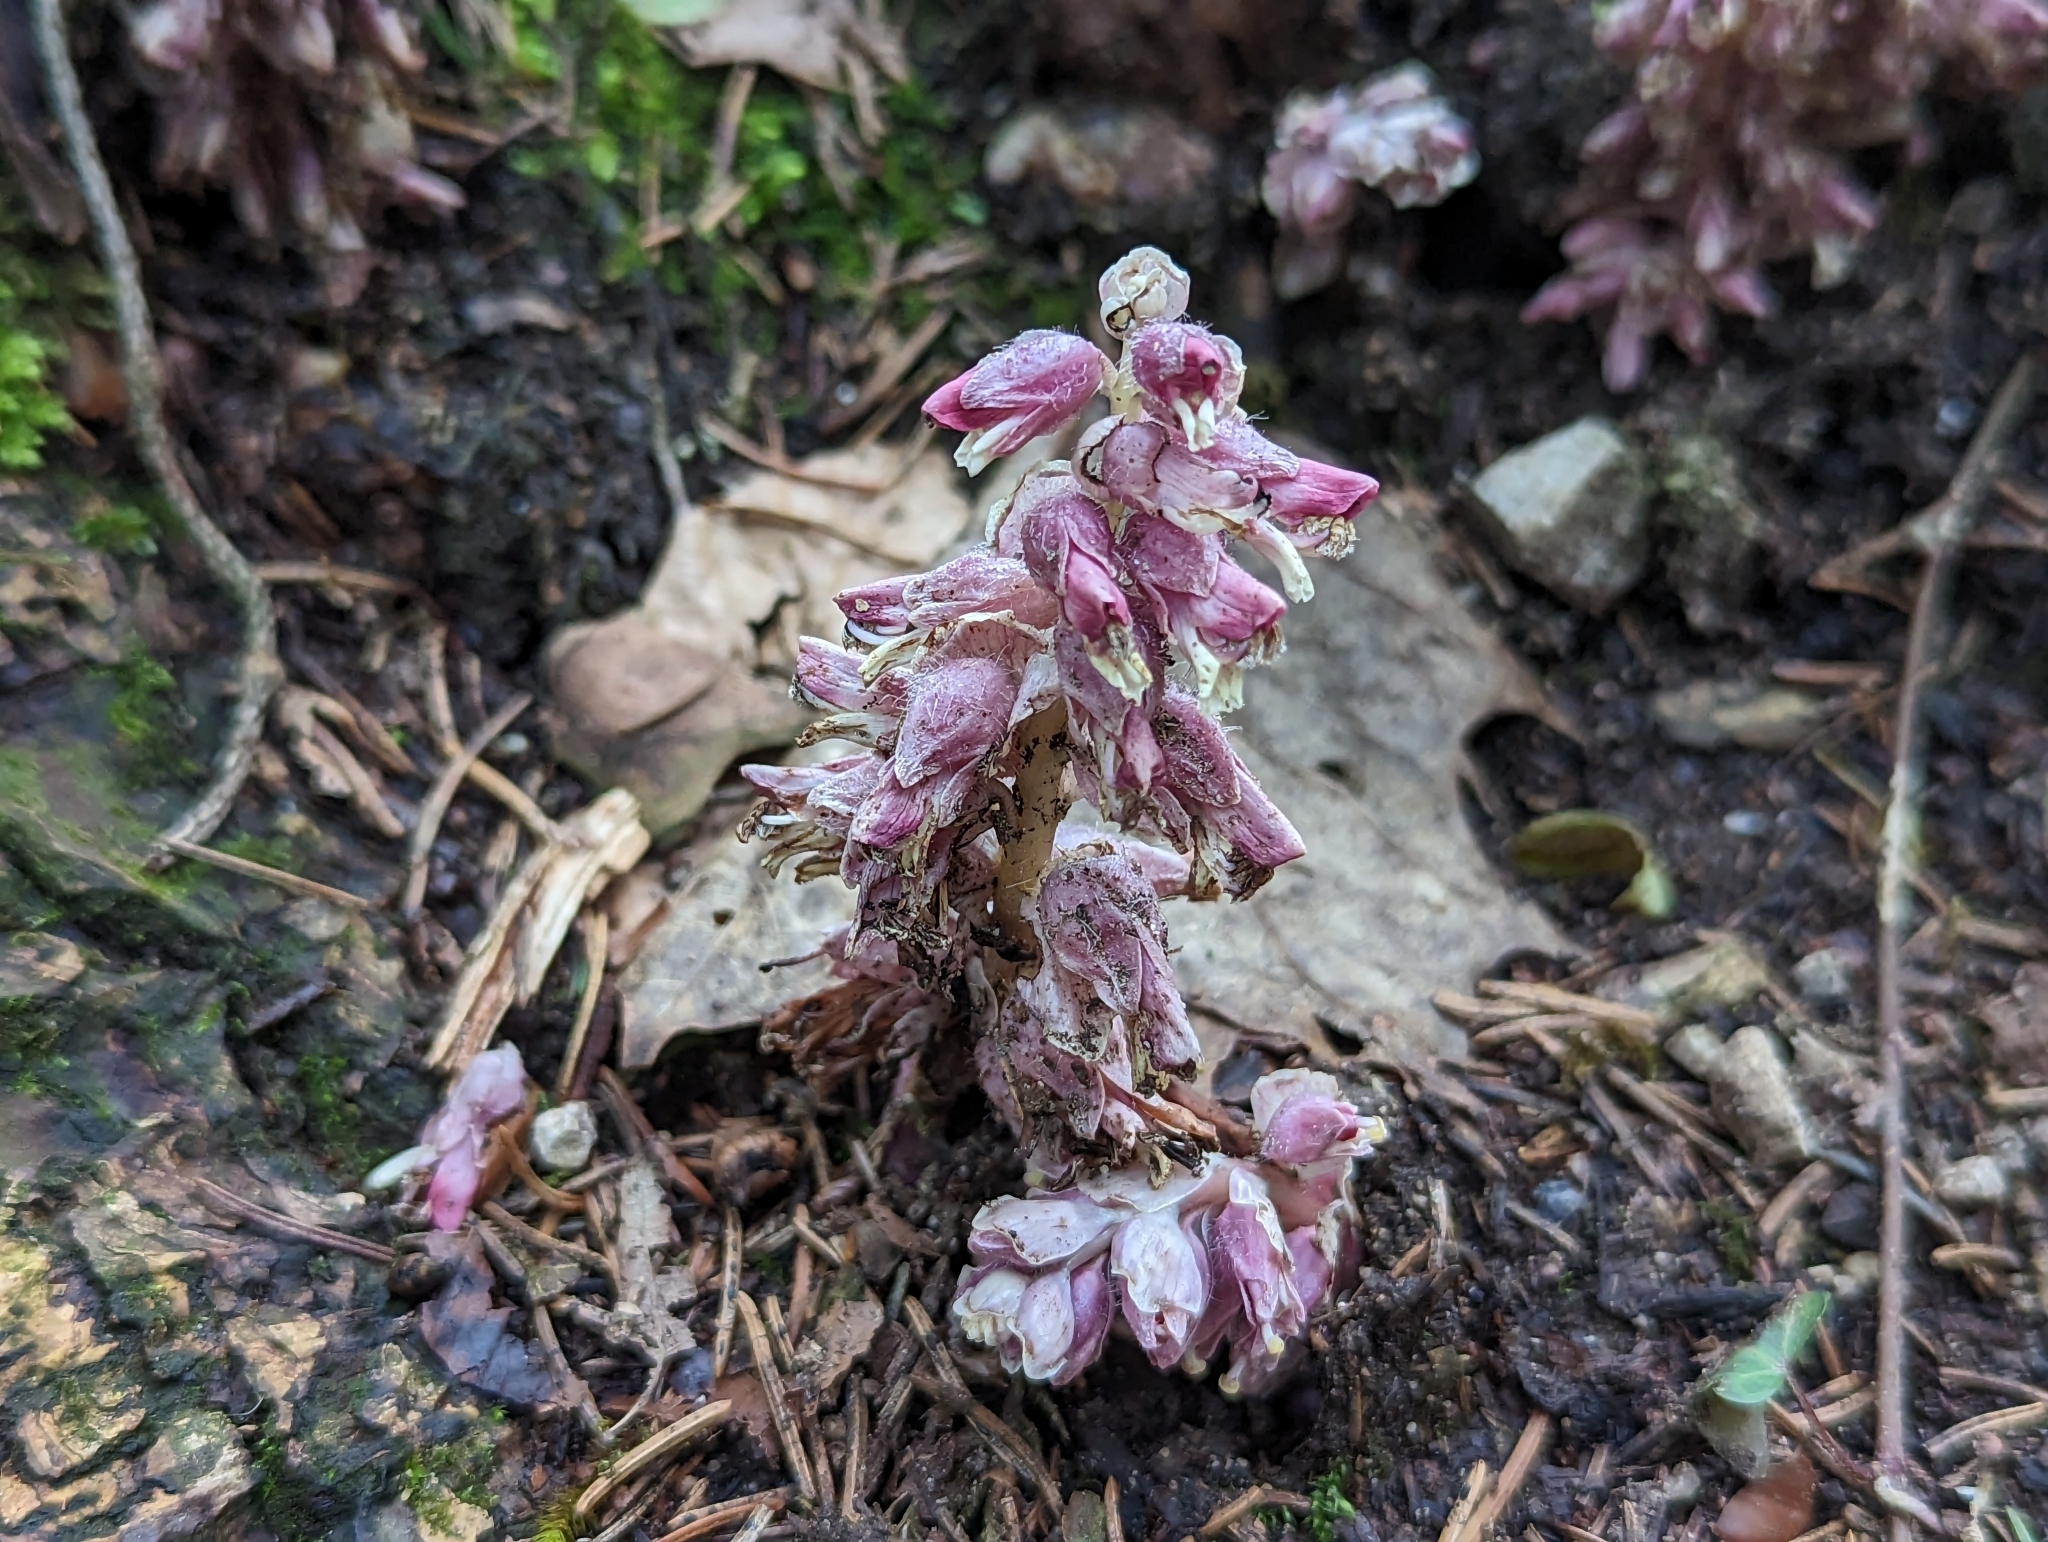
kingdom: Plantae
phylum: Tracheophyta
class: Magnoliopsida
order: Lamiales
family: Orobanchaceae
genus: Lathraea
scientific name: Lathraea squamaria
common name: Toothwort
